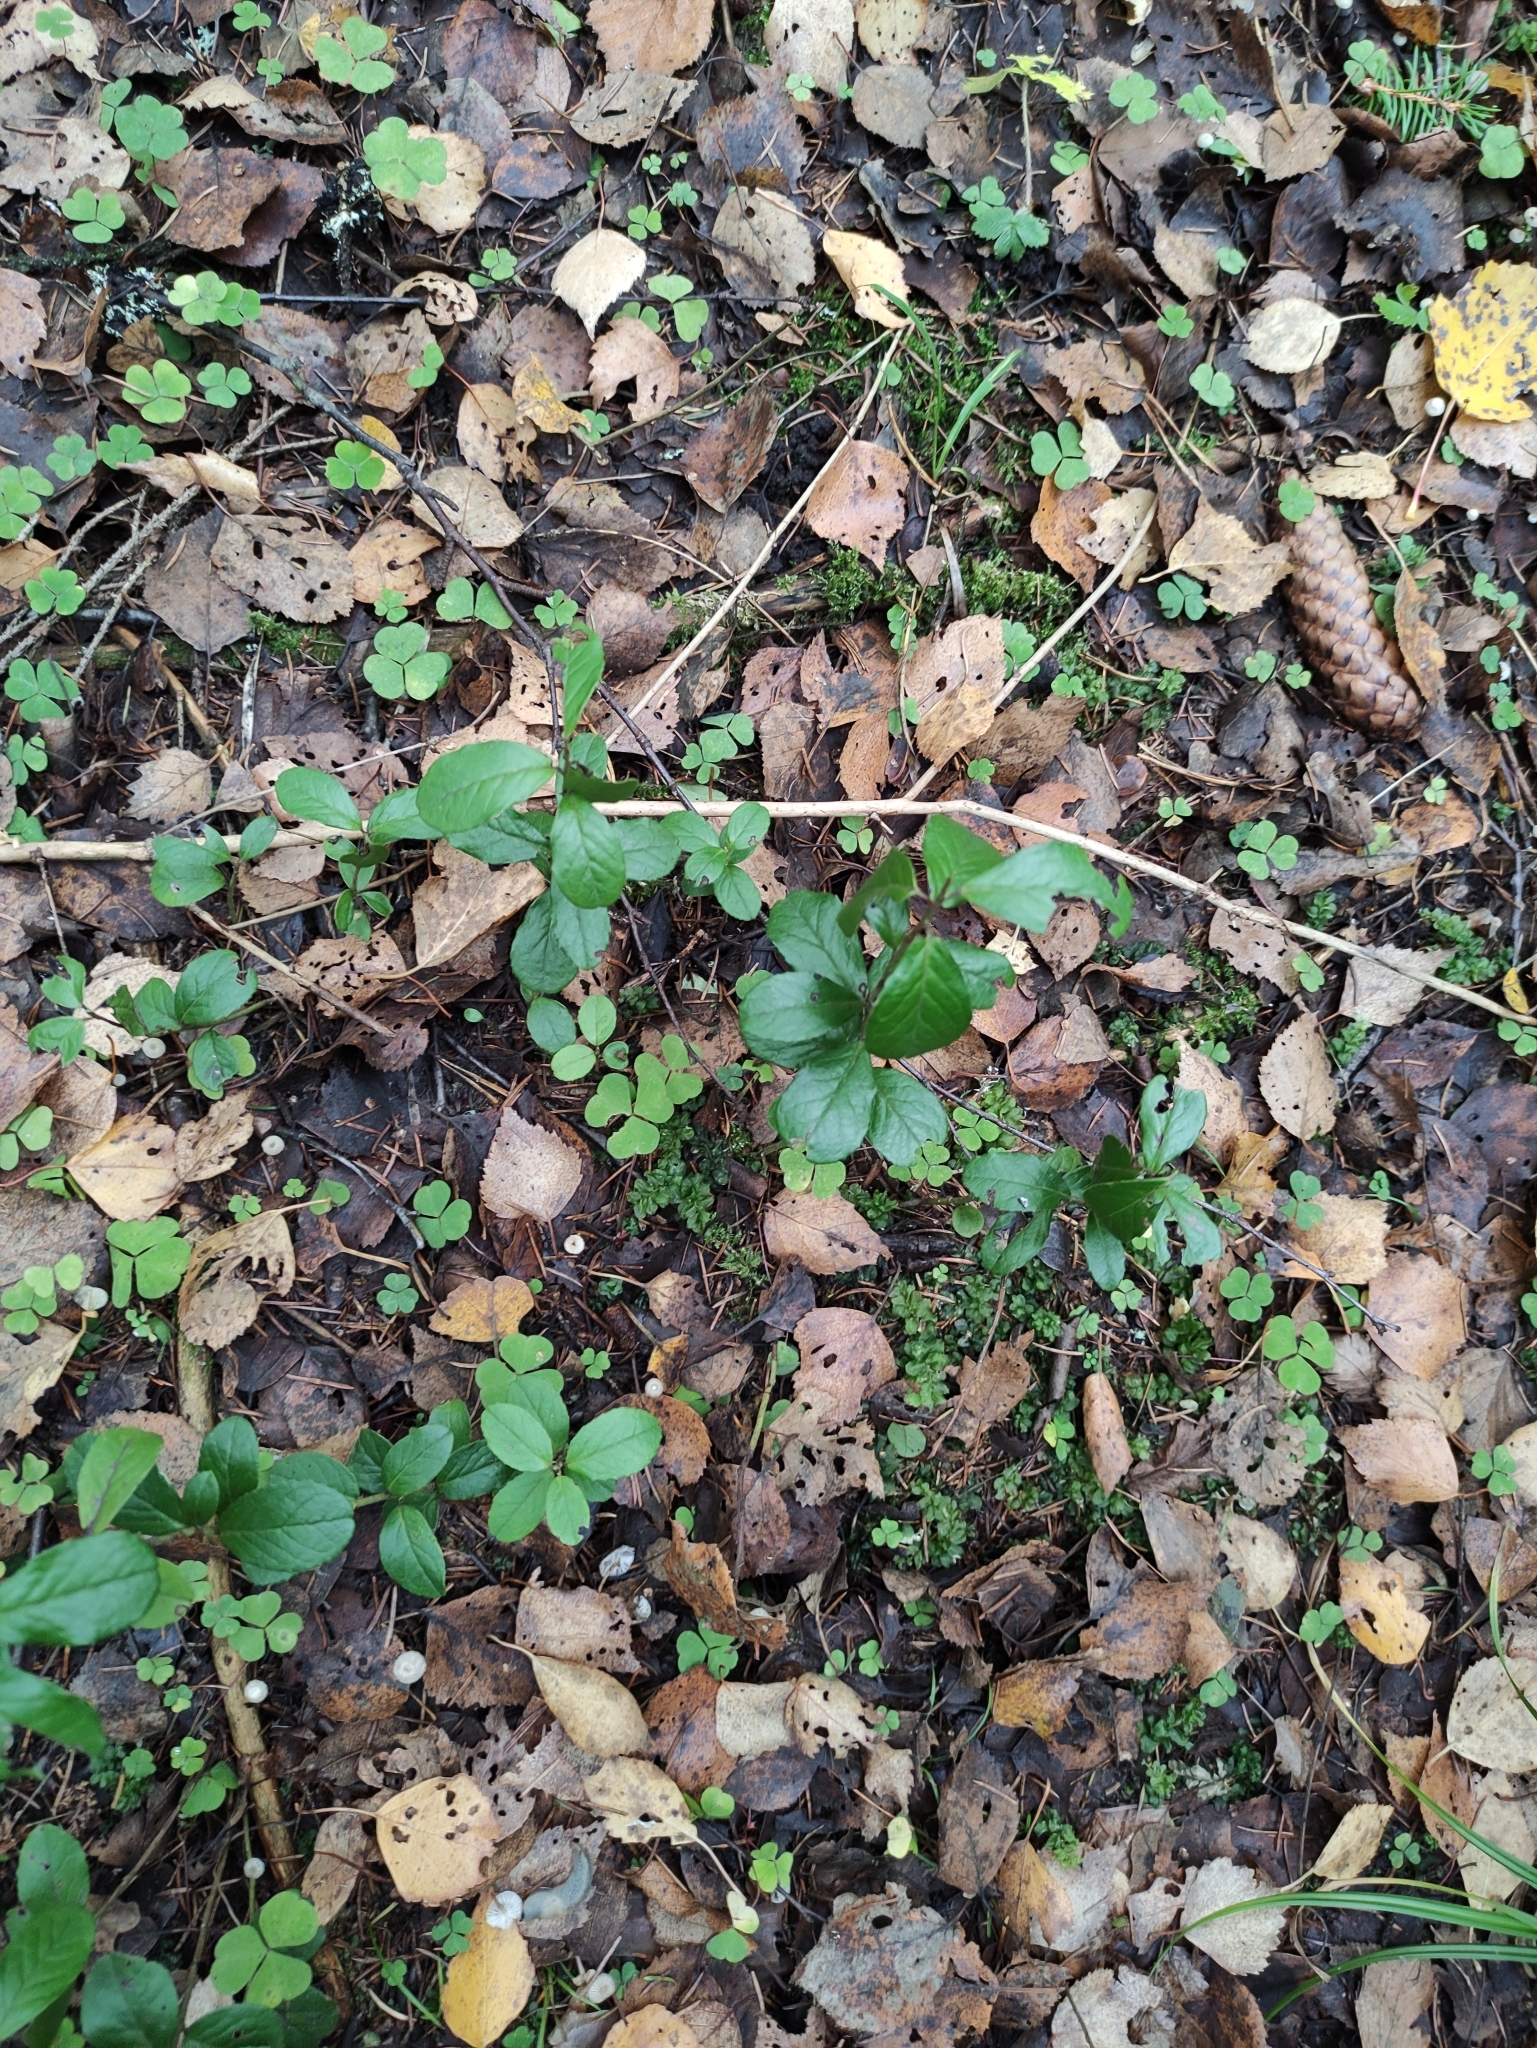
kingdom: Plantae
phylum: Tracheophyta
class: Magnoliopsida
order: Ericales
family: Ericaceae
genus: Vaccinium
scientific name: Vaccinium vitis-idaea
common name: Cowberry
